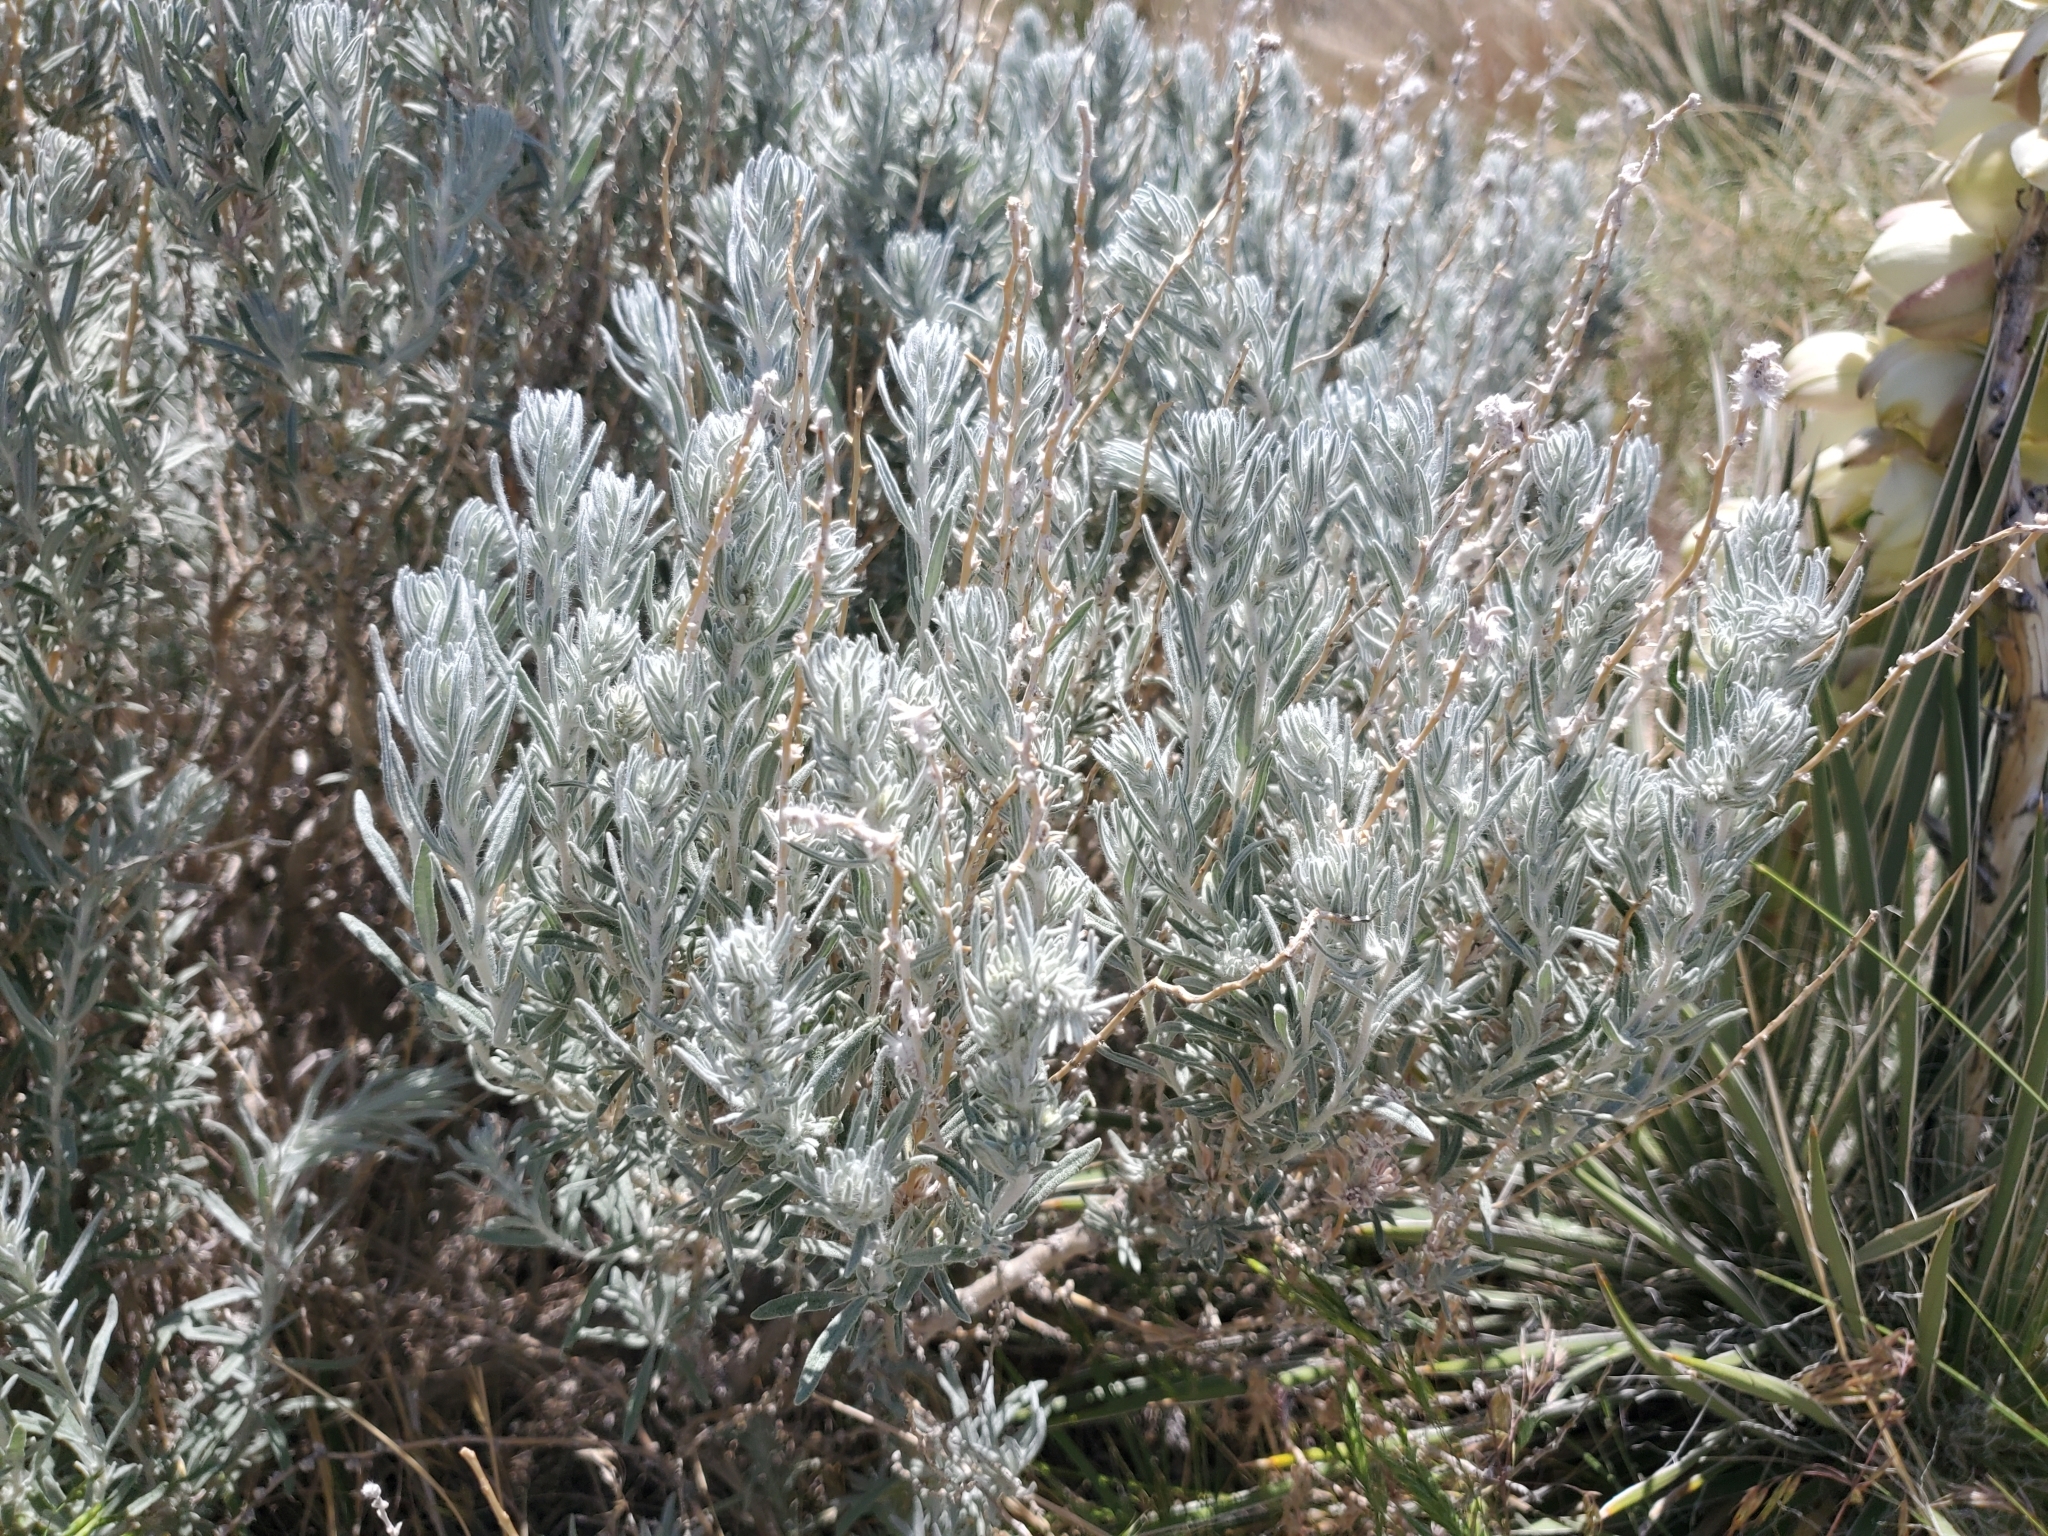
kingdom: Plantae
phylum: Tracheophyta
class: Magnoliopsida
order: Caryophyllales
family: Amaranthaceae
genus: Krascheninnikovia
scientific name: Krascheninnikovia lanata
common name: Winterfat
